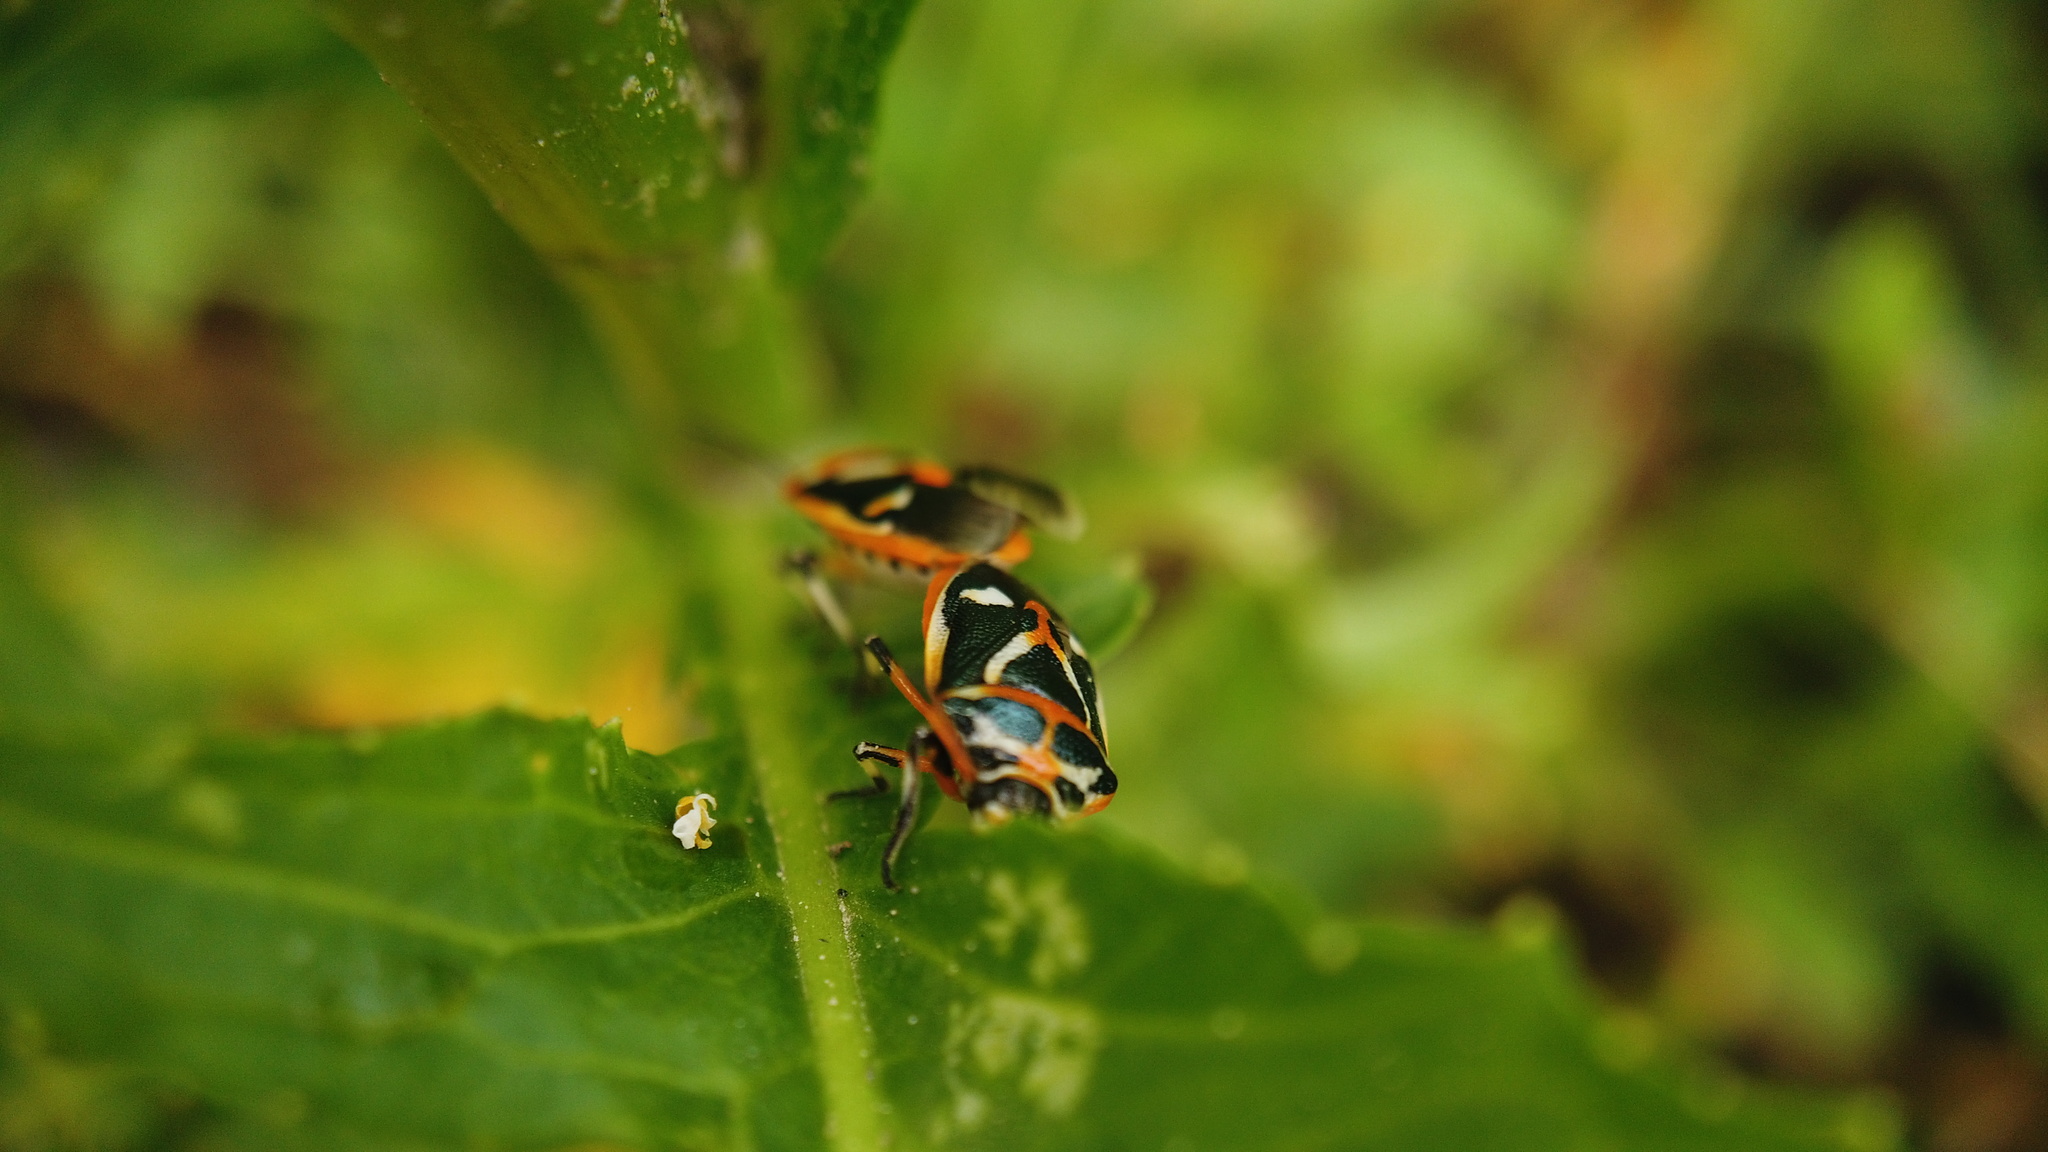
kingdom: Animalia
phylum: Arthropoda
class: Insecta
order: Hemiptera
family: Pentatomidae
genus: Eurydema
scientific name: Eurydema gebleri
